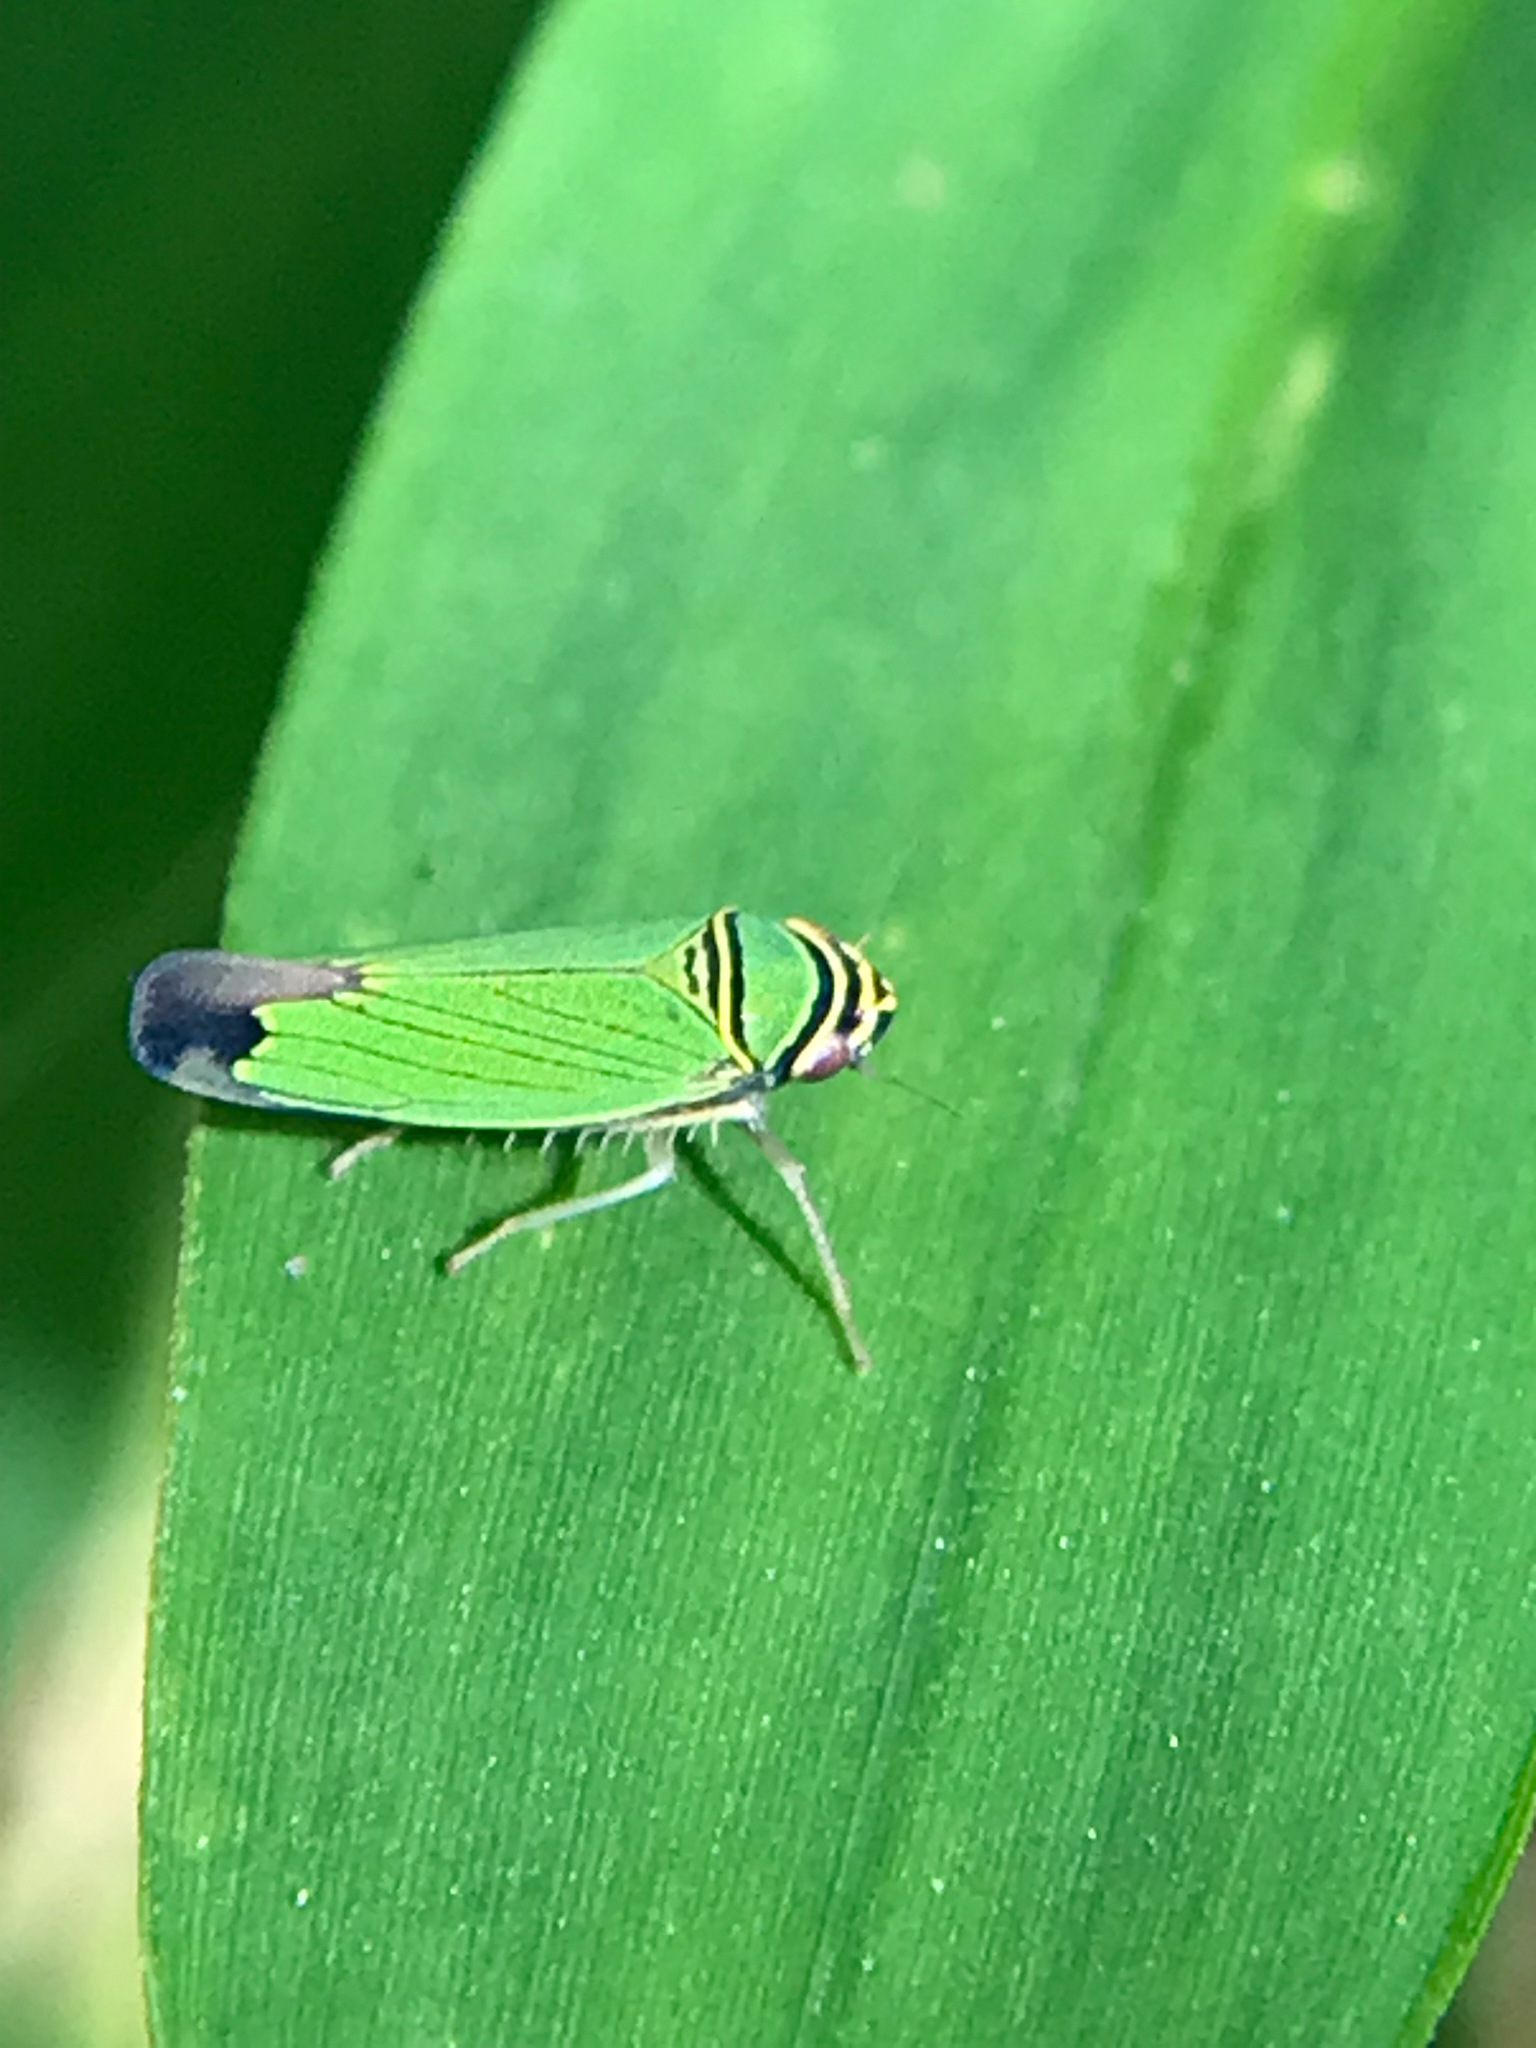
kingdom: Animalia
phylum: Arthropoda
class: Insecta
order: Hemiptera
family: Cicadellidae
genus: Tylozygus
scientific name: Tylozygus geometricus
